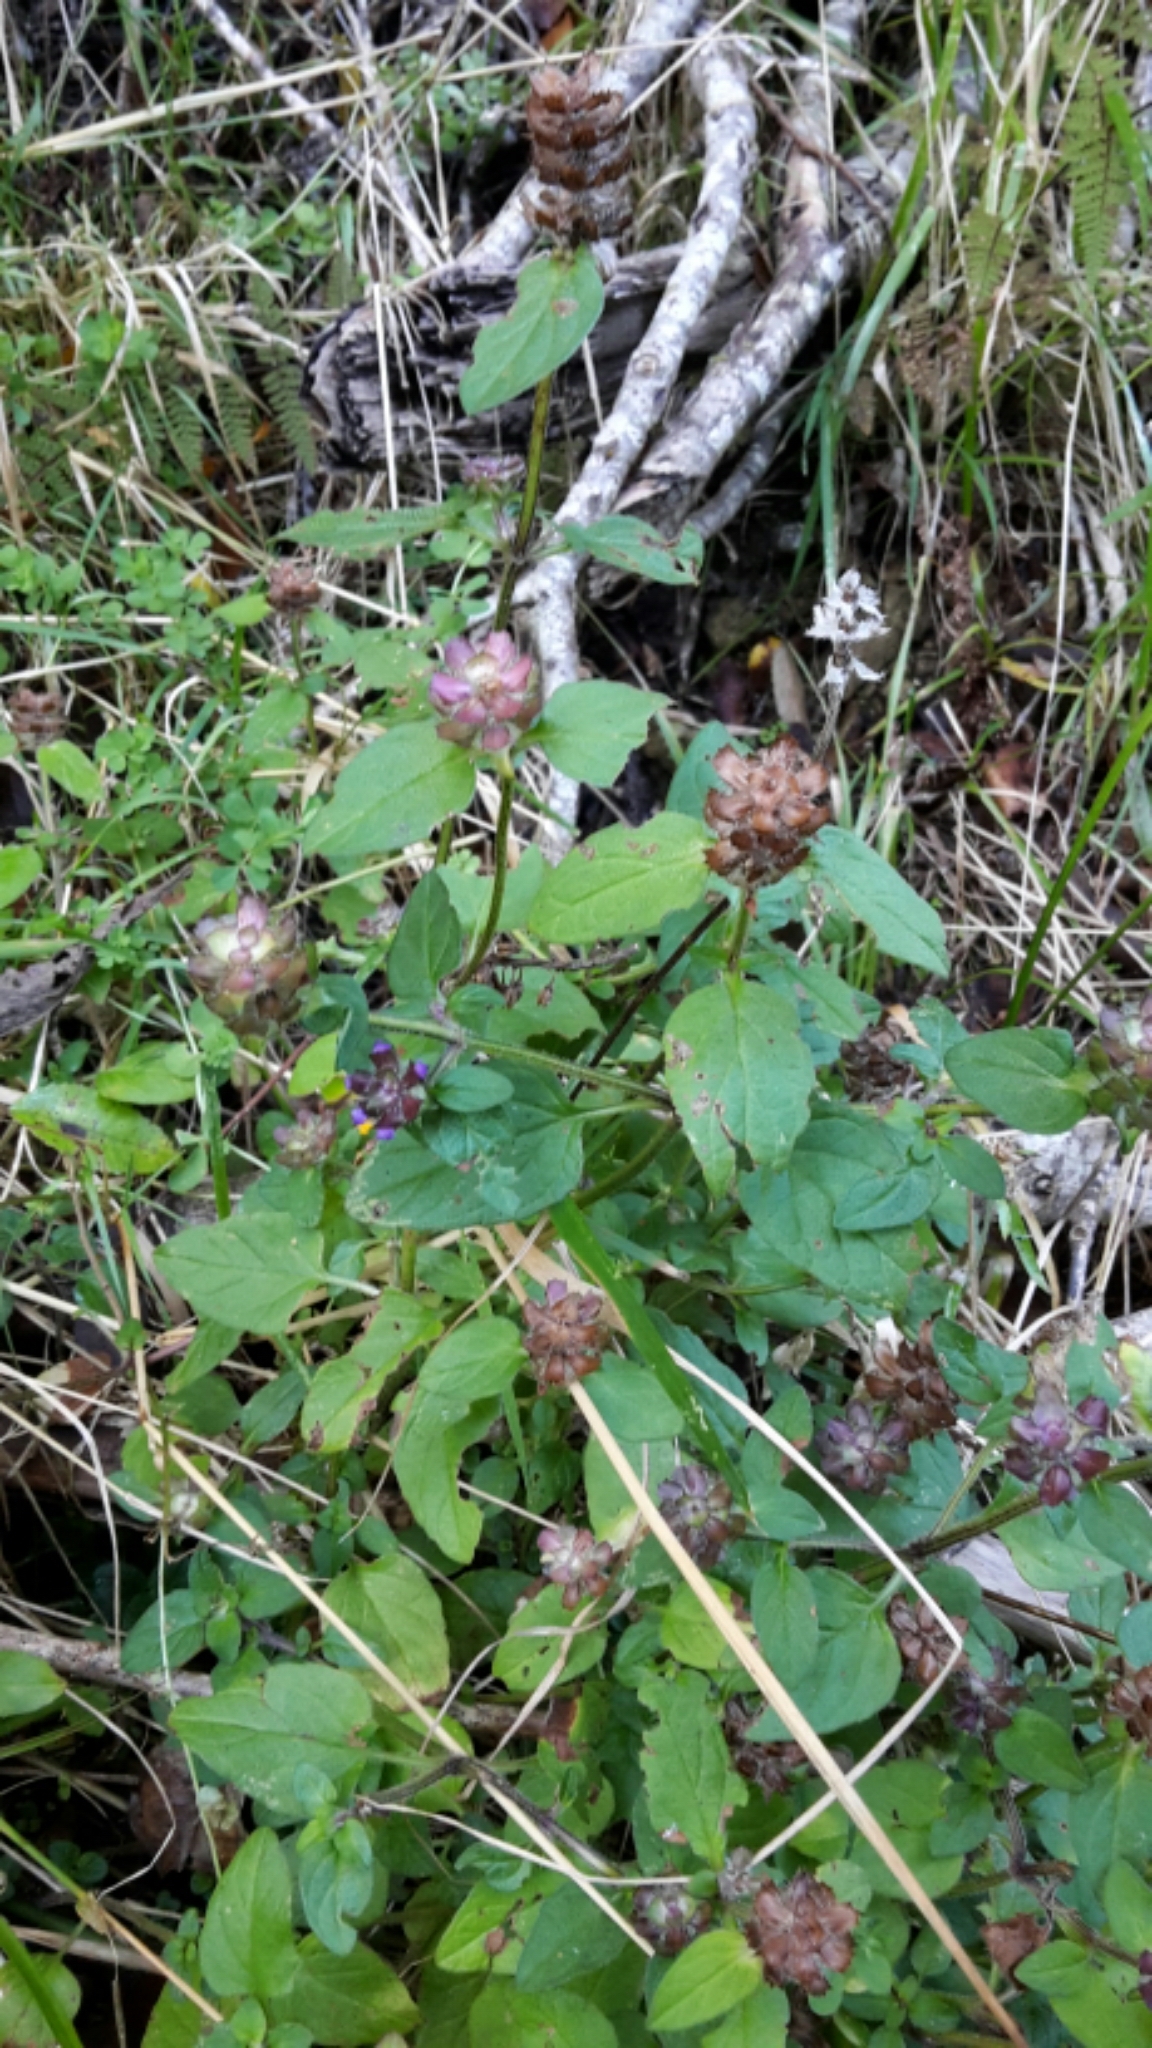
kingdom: Plantae
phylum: Tracheophyta
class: Magnoliopsida
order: Lamiales
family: Lamiaceae
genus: Prunella
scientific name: Prunella vulgaris
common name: Heal-all
